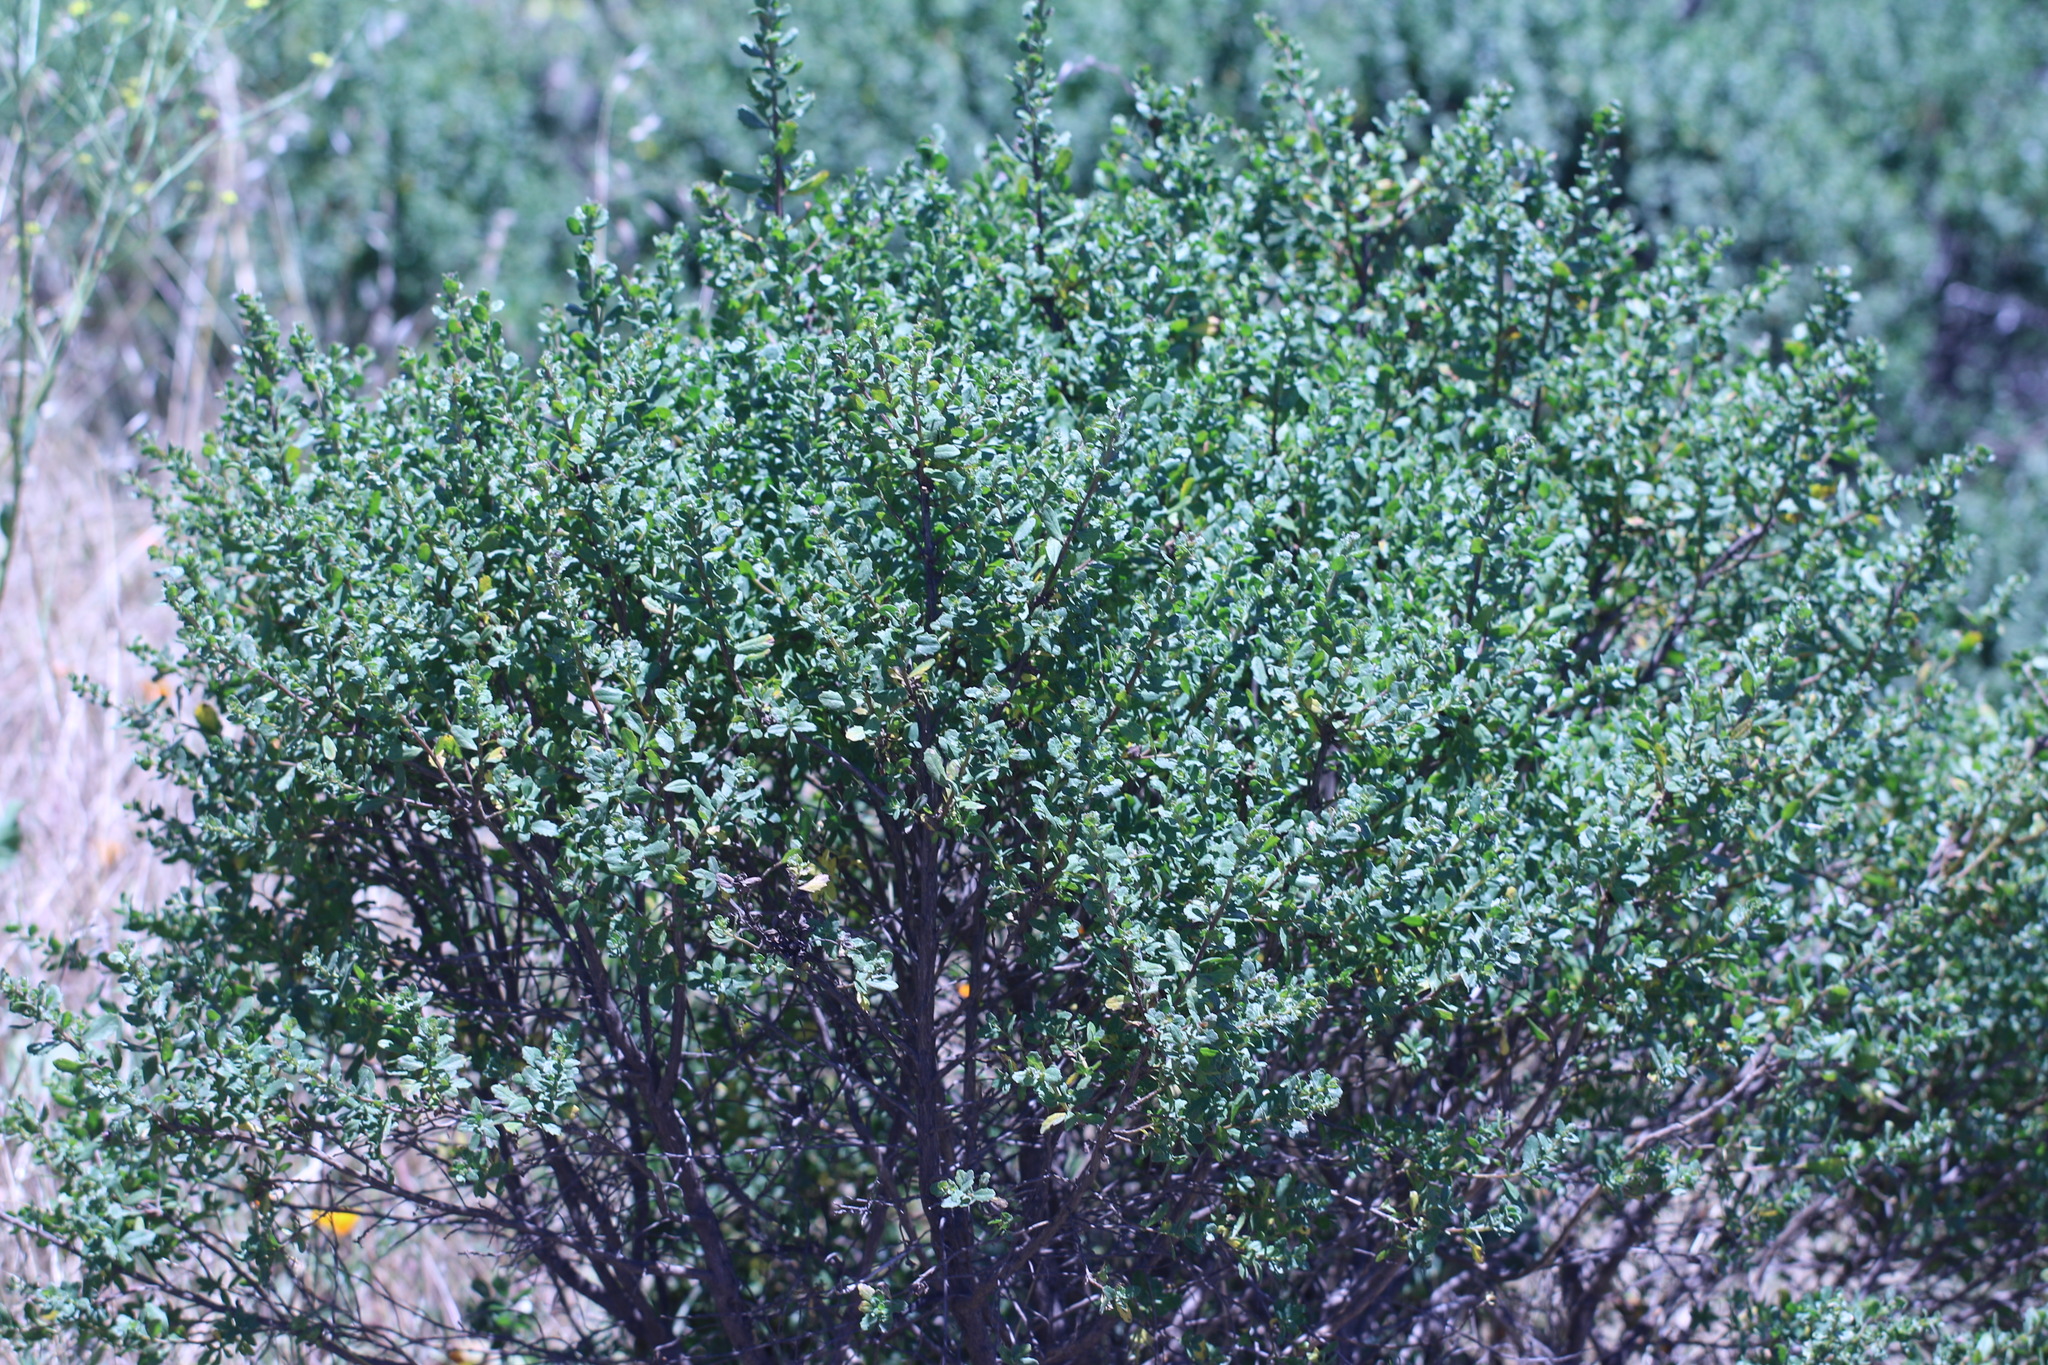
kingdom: Plantae
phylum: Tracheophyta
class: Magnoliopsida
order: Asterales
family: Asteraceae
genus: Baccharis
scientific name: Baccharis pilularis
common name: Coyotebrush
